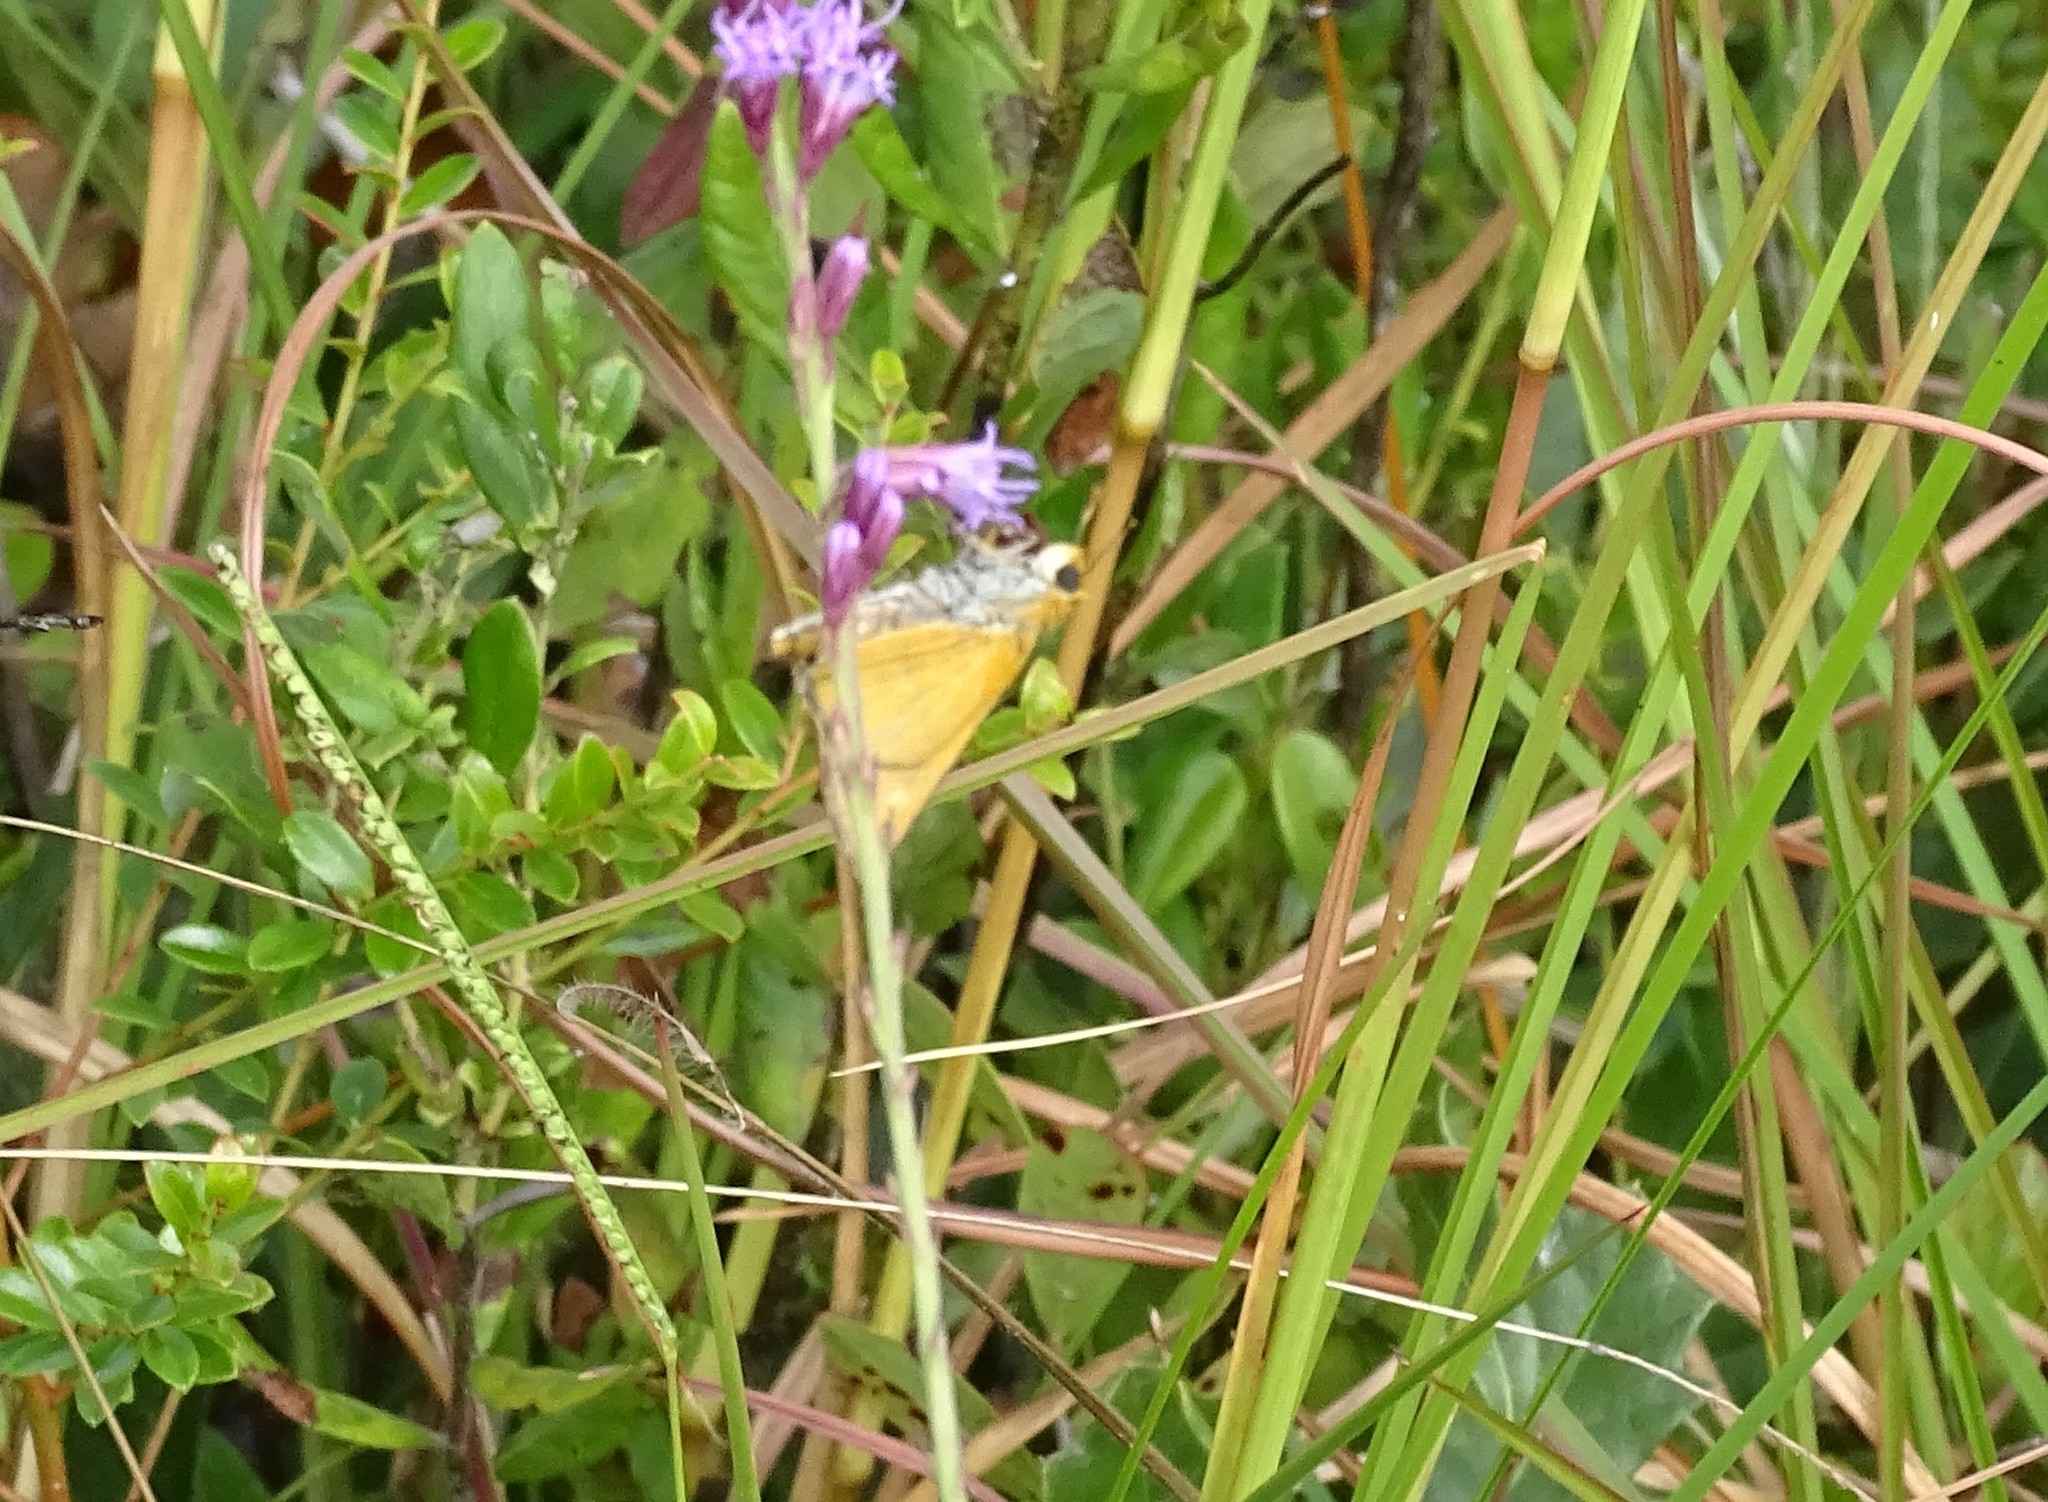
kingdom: Animalia
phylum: Arthropoda
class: Insecta
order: Lepidoptera
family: Hesperiidae
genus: Euphyes
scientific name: Euphyes arpa
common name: Palmetto skipper
